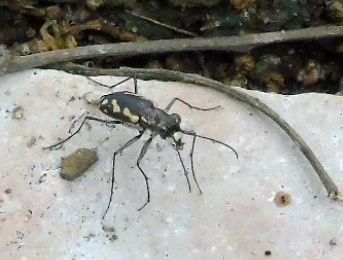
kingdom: Animalia
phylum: Arthropoda
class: Insecta
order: Coleoptera
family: Carabidae
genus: Cicindela
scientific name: Cicindela hydrophoba
